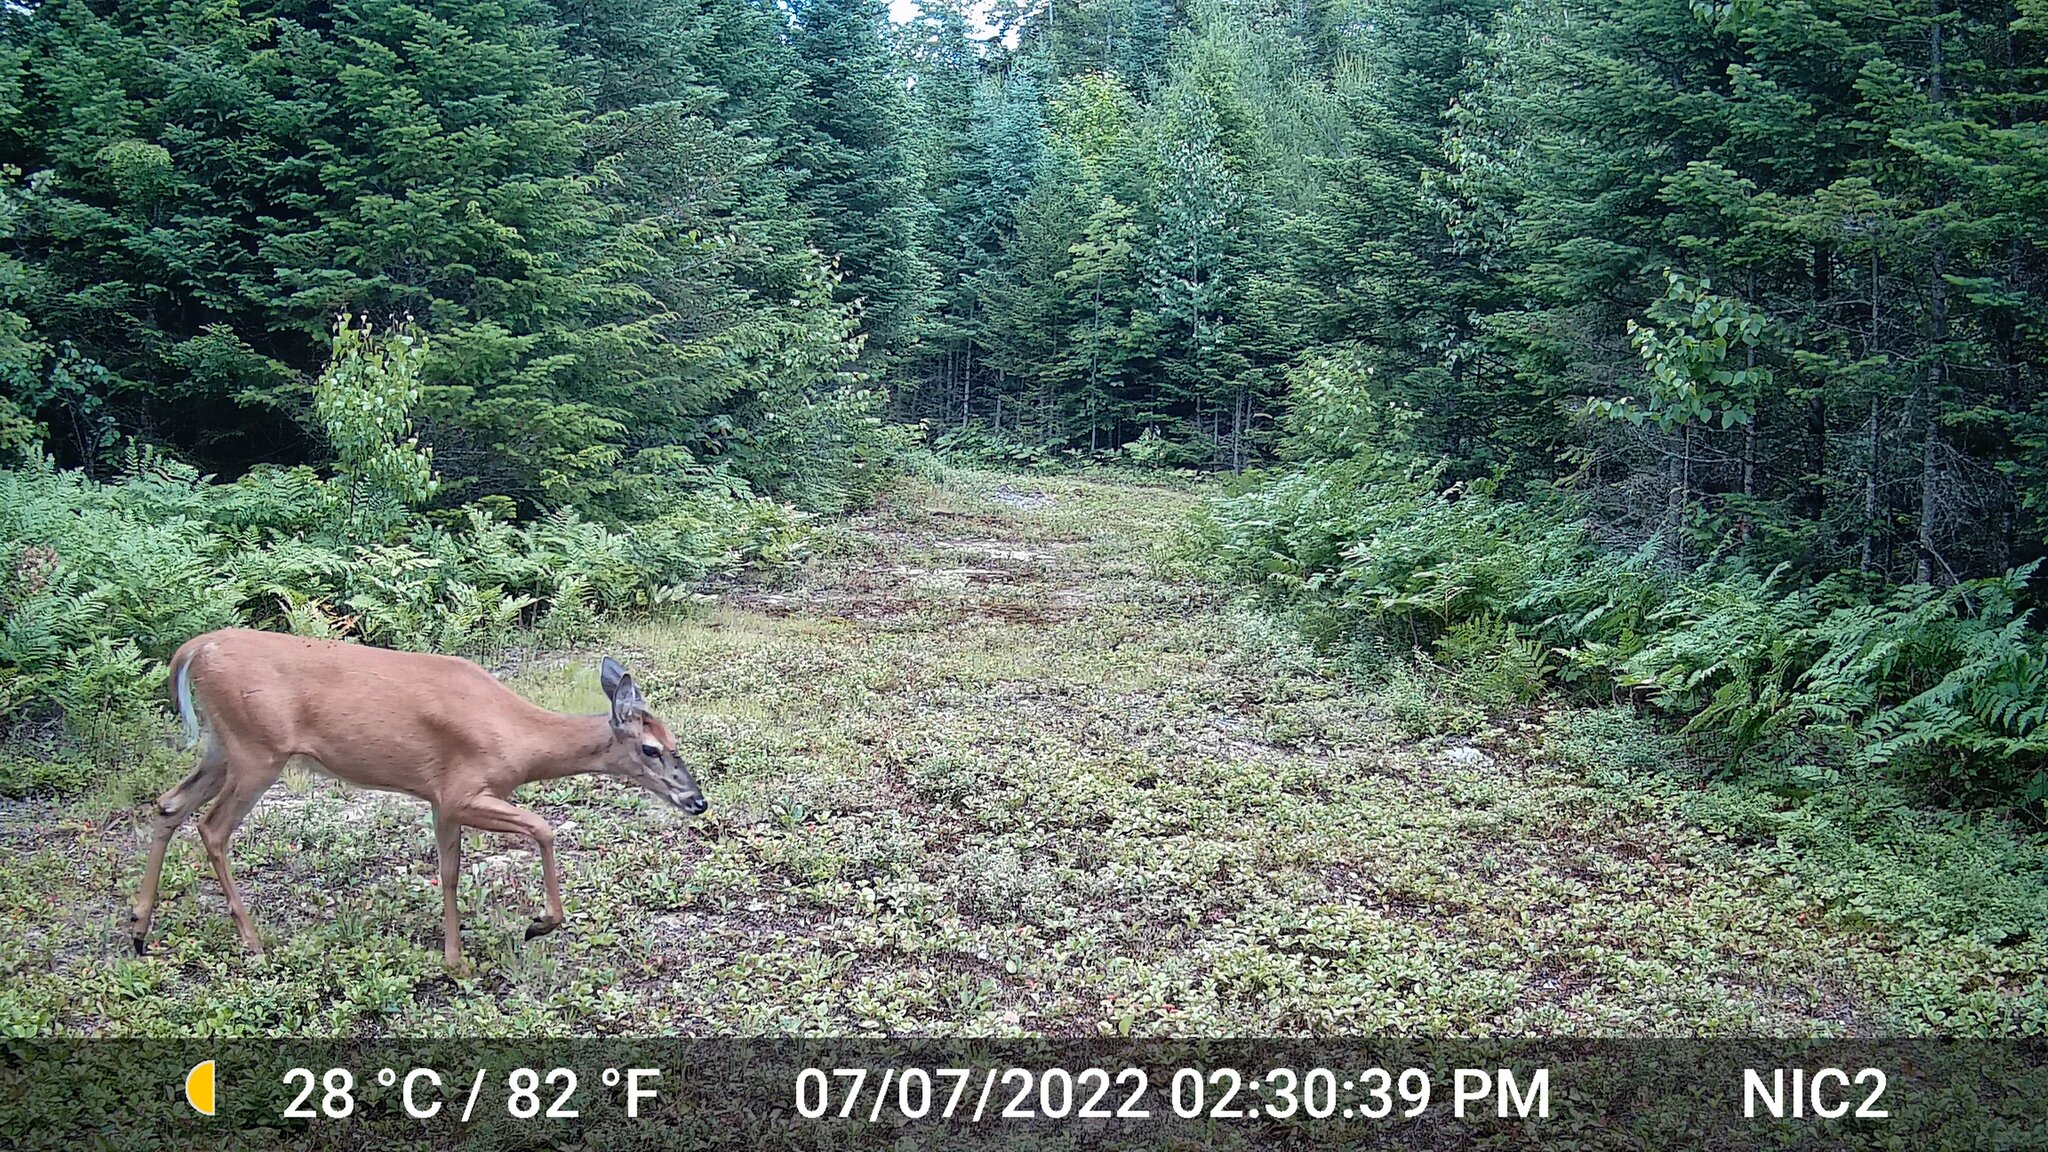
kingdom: Animalia
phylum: Chordata
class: Mammalia
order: Artiodactyla
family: Cervidae
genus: Odocoileus
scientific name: Odocoileus virginianus
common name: White-tailed deer
